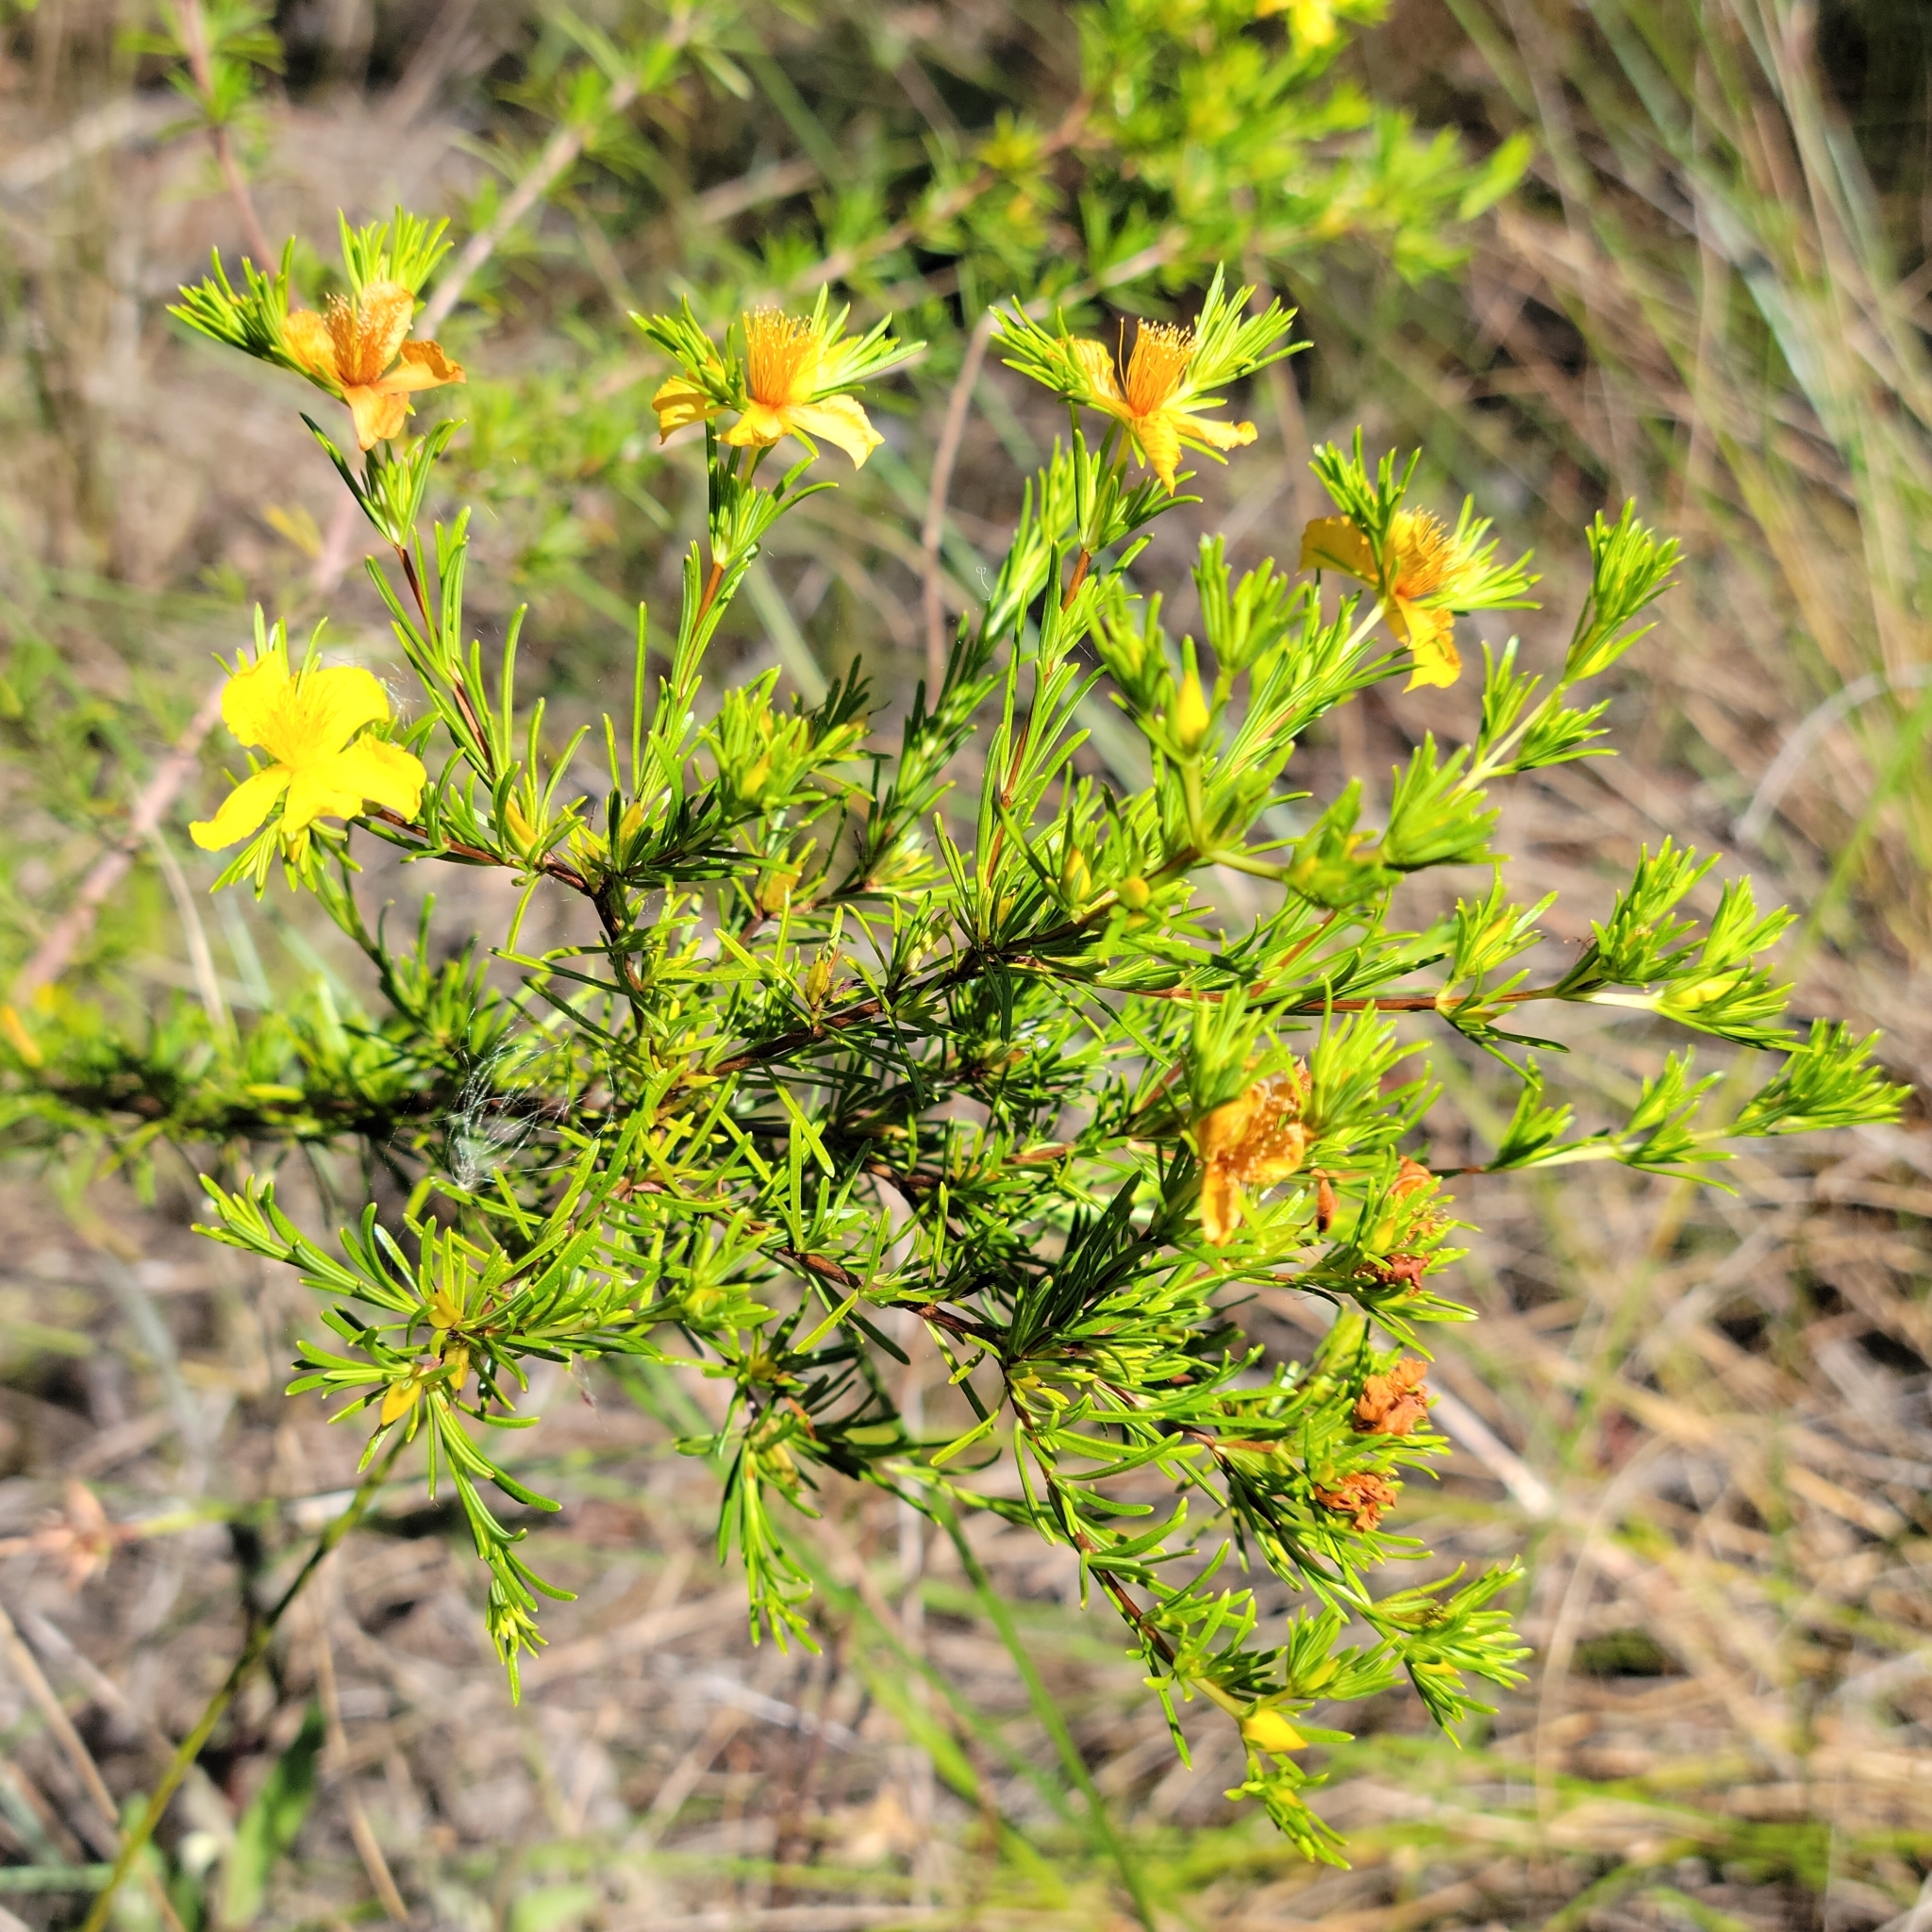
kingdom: Plantae
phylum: Tracheophyta
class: Magnoliopsida
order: Malpighiales
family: Hypericaceae
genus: Hypericum
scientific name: Hypericum fasciculatum
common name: Peelbark st. john's wort
